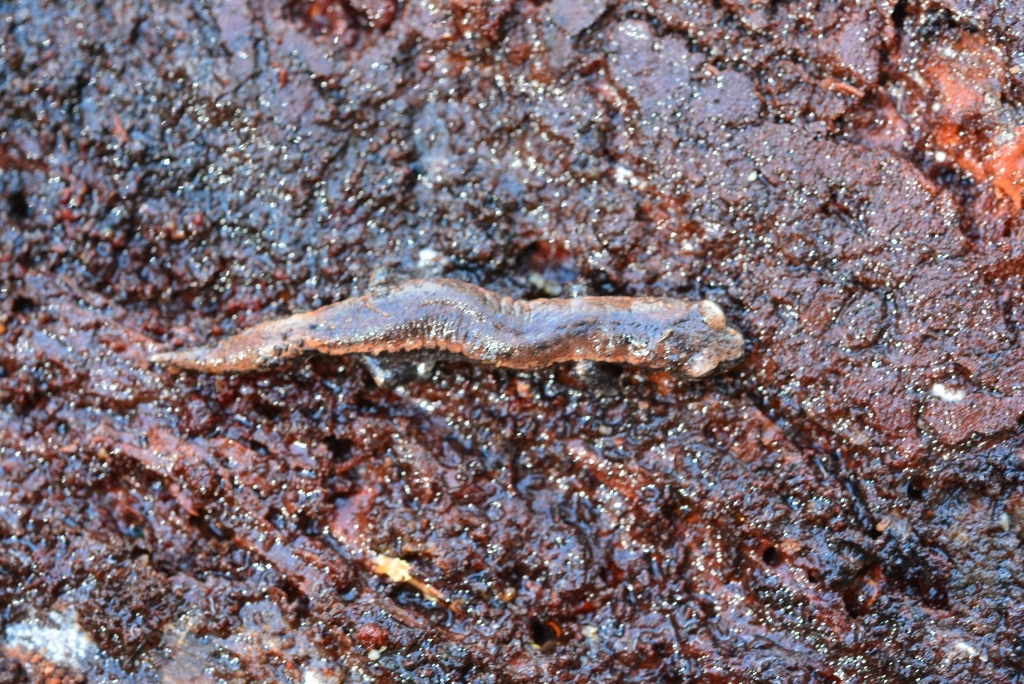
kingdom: Animalia
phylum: Chordata
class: Amphibia
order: Caudata
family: Plethodontidae
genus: Bolitoglossa
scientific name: Bolitoglossa hartwegi
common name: Hartweg's mushroomtongue salamander
